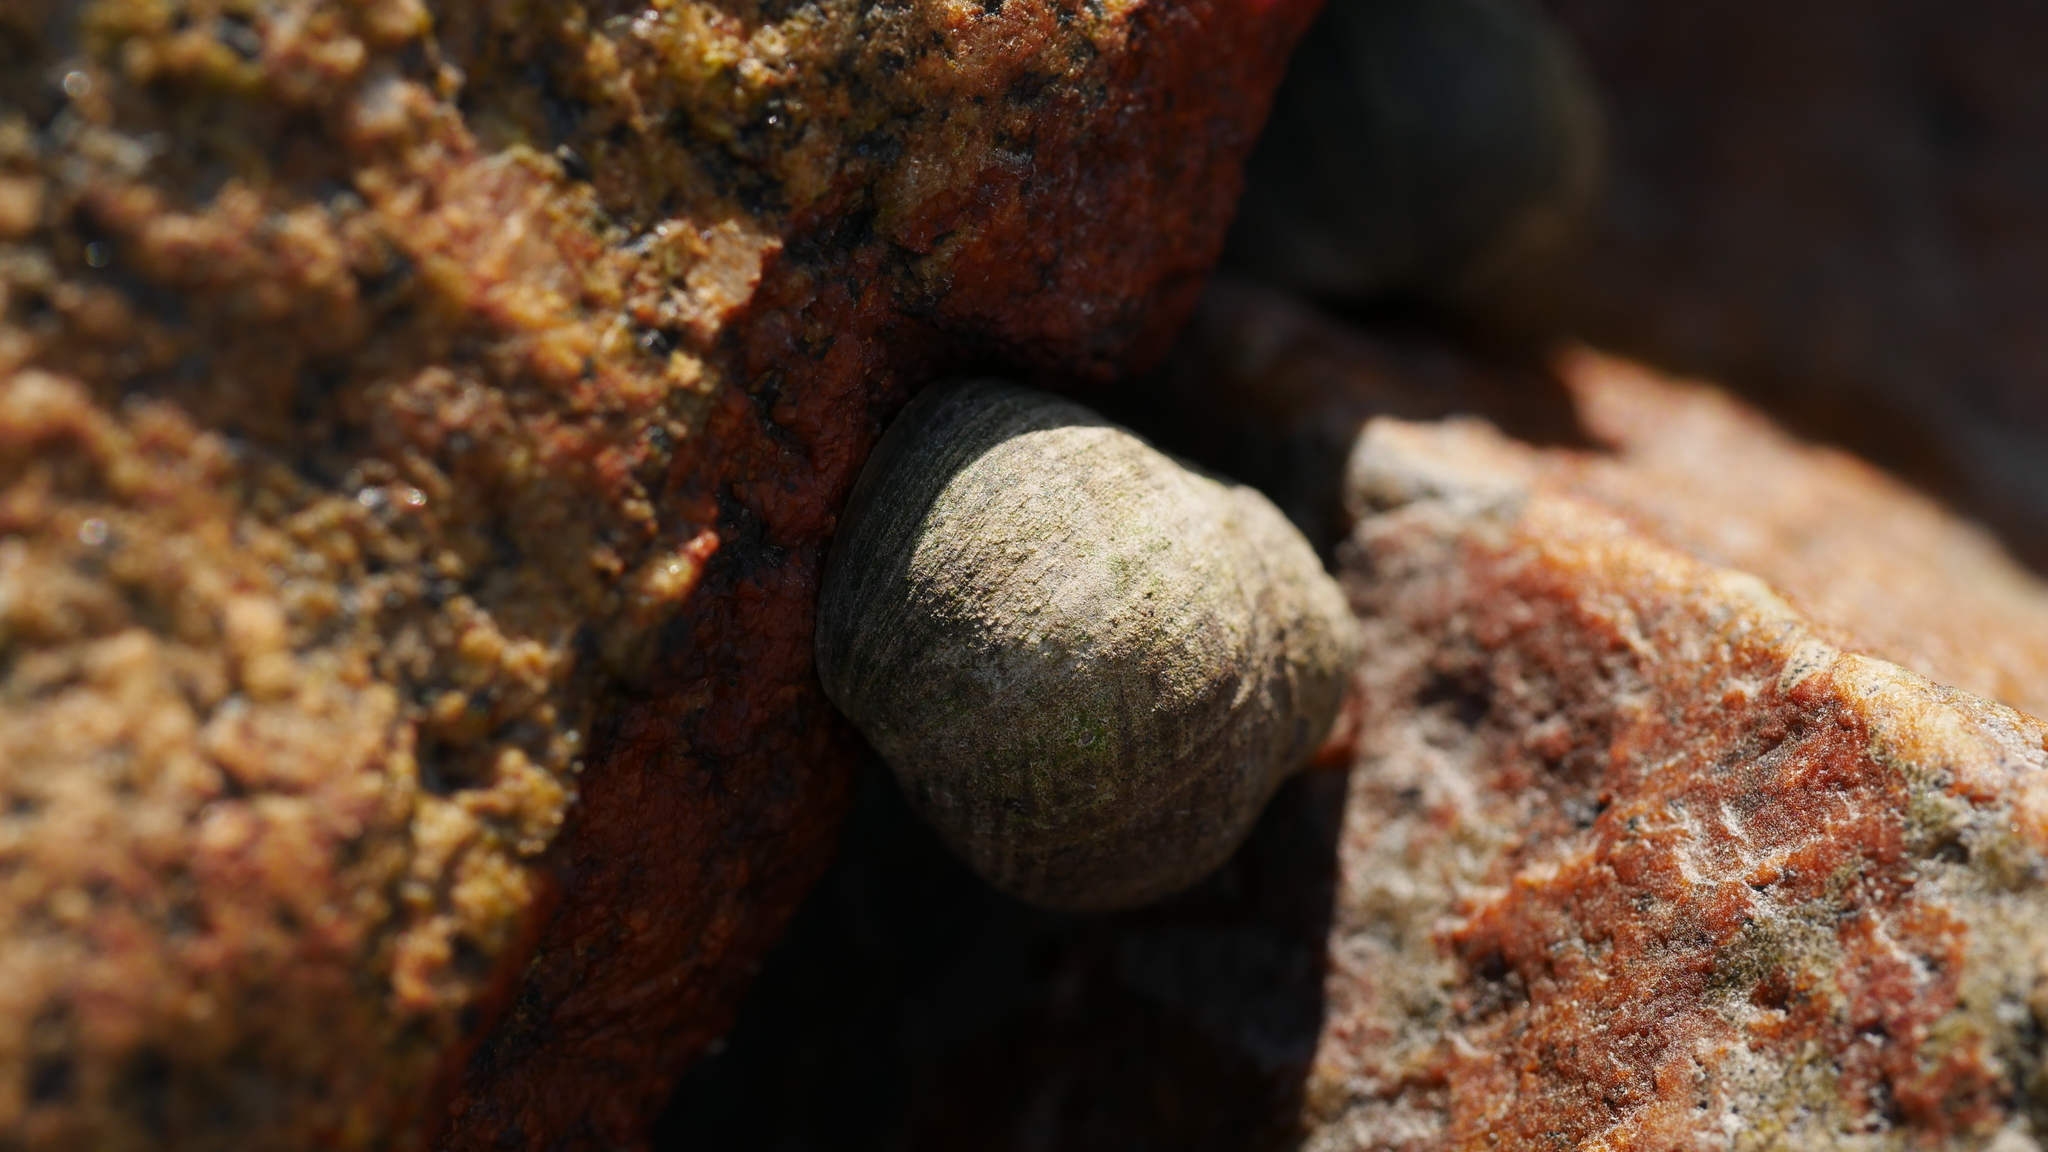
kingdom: Animalia
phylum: Mollusca
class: Gastropoda
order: Littorinimorpha
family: Littorinidae
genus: Littorina
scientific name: Littorina littorea
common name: Common periwinkle
